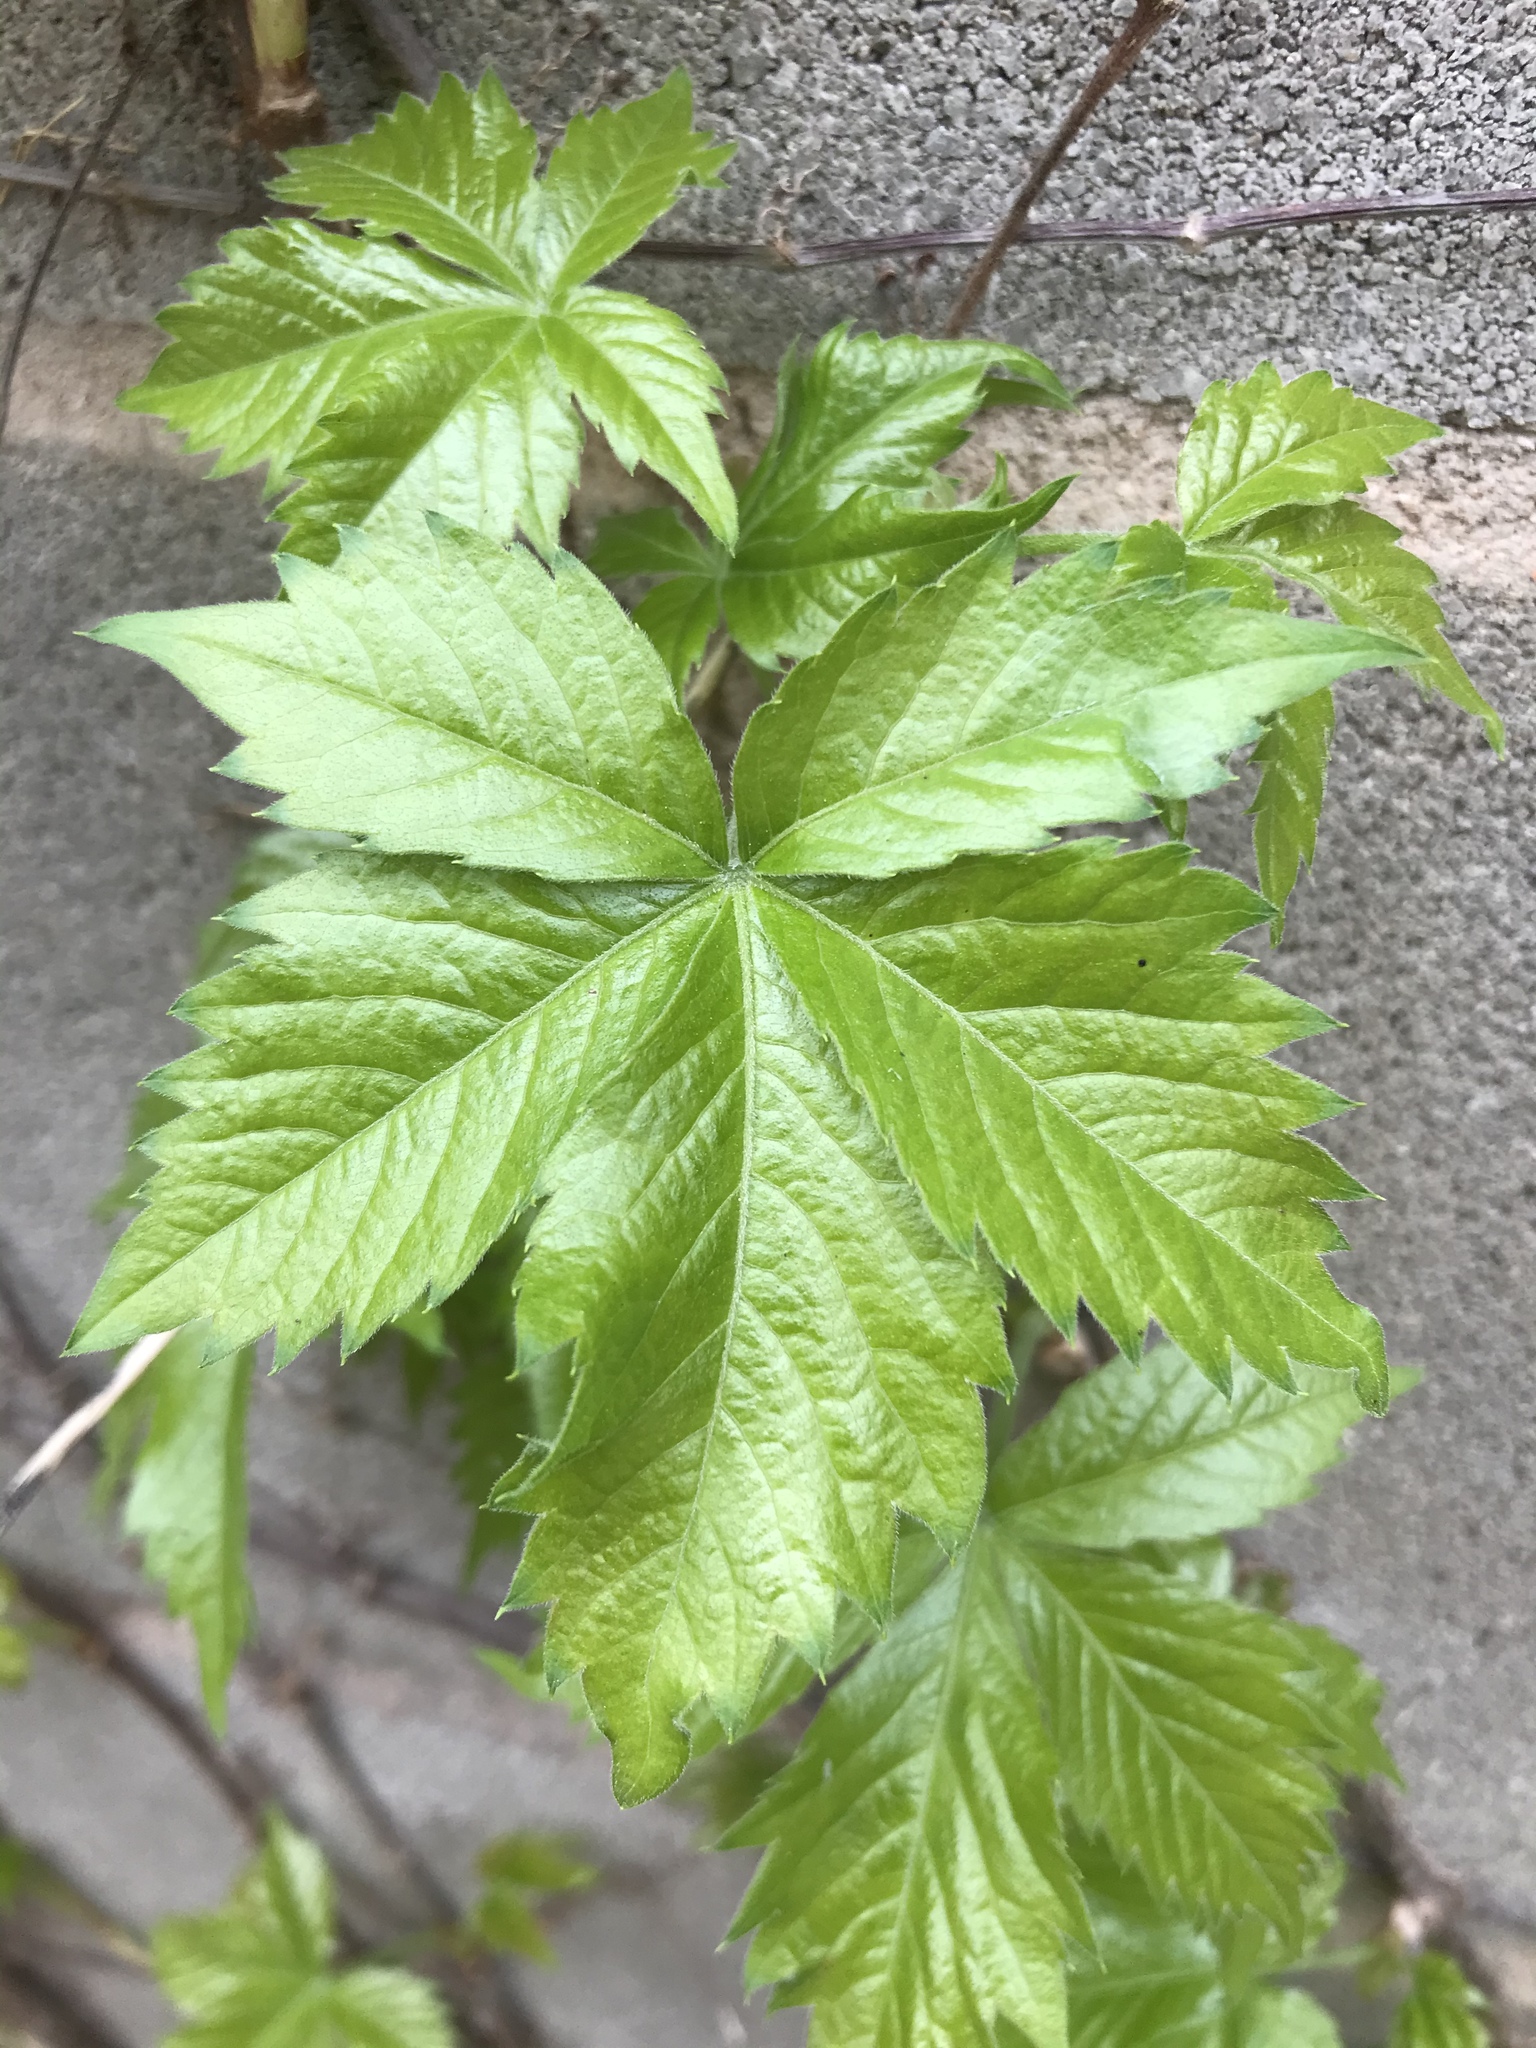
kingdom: Plantae
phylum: Tracheophyta
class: Magnoliopsida
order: Vitales
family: Vitaceae
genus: Parthenocissus
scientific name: Parthenocissus quinquefolia
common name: Virginia-creeper
